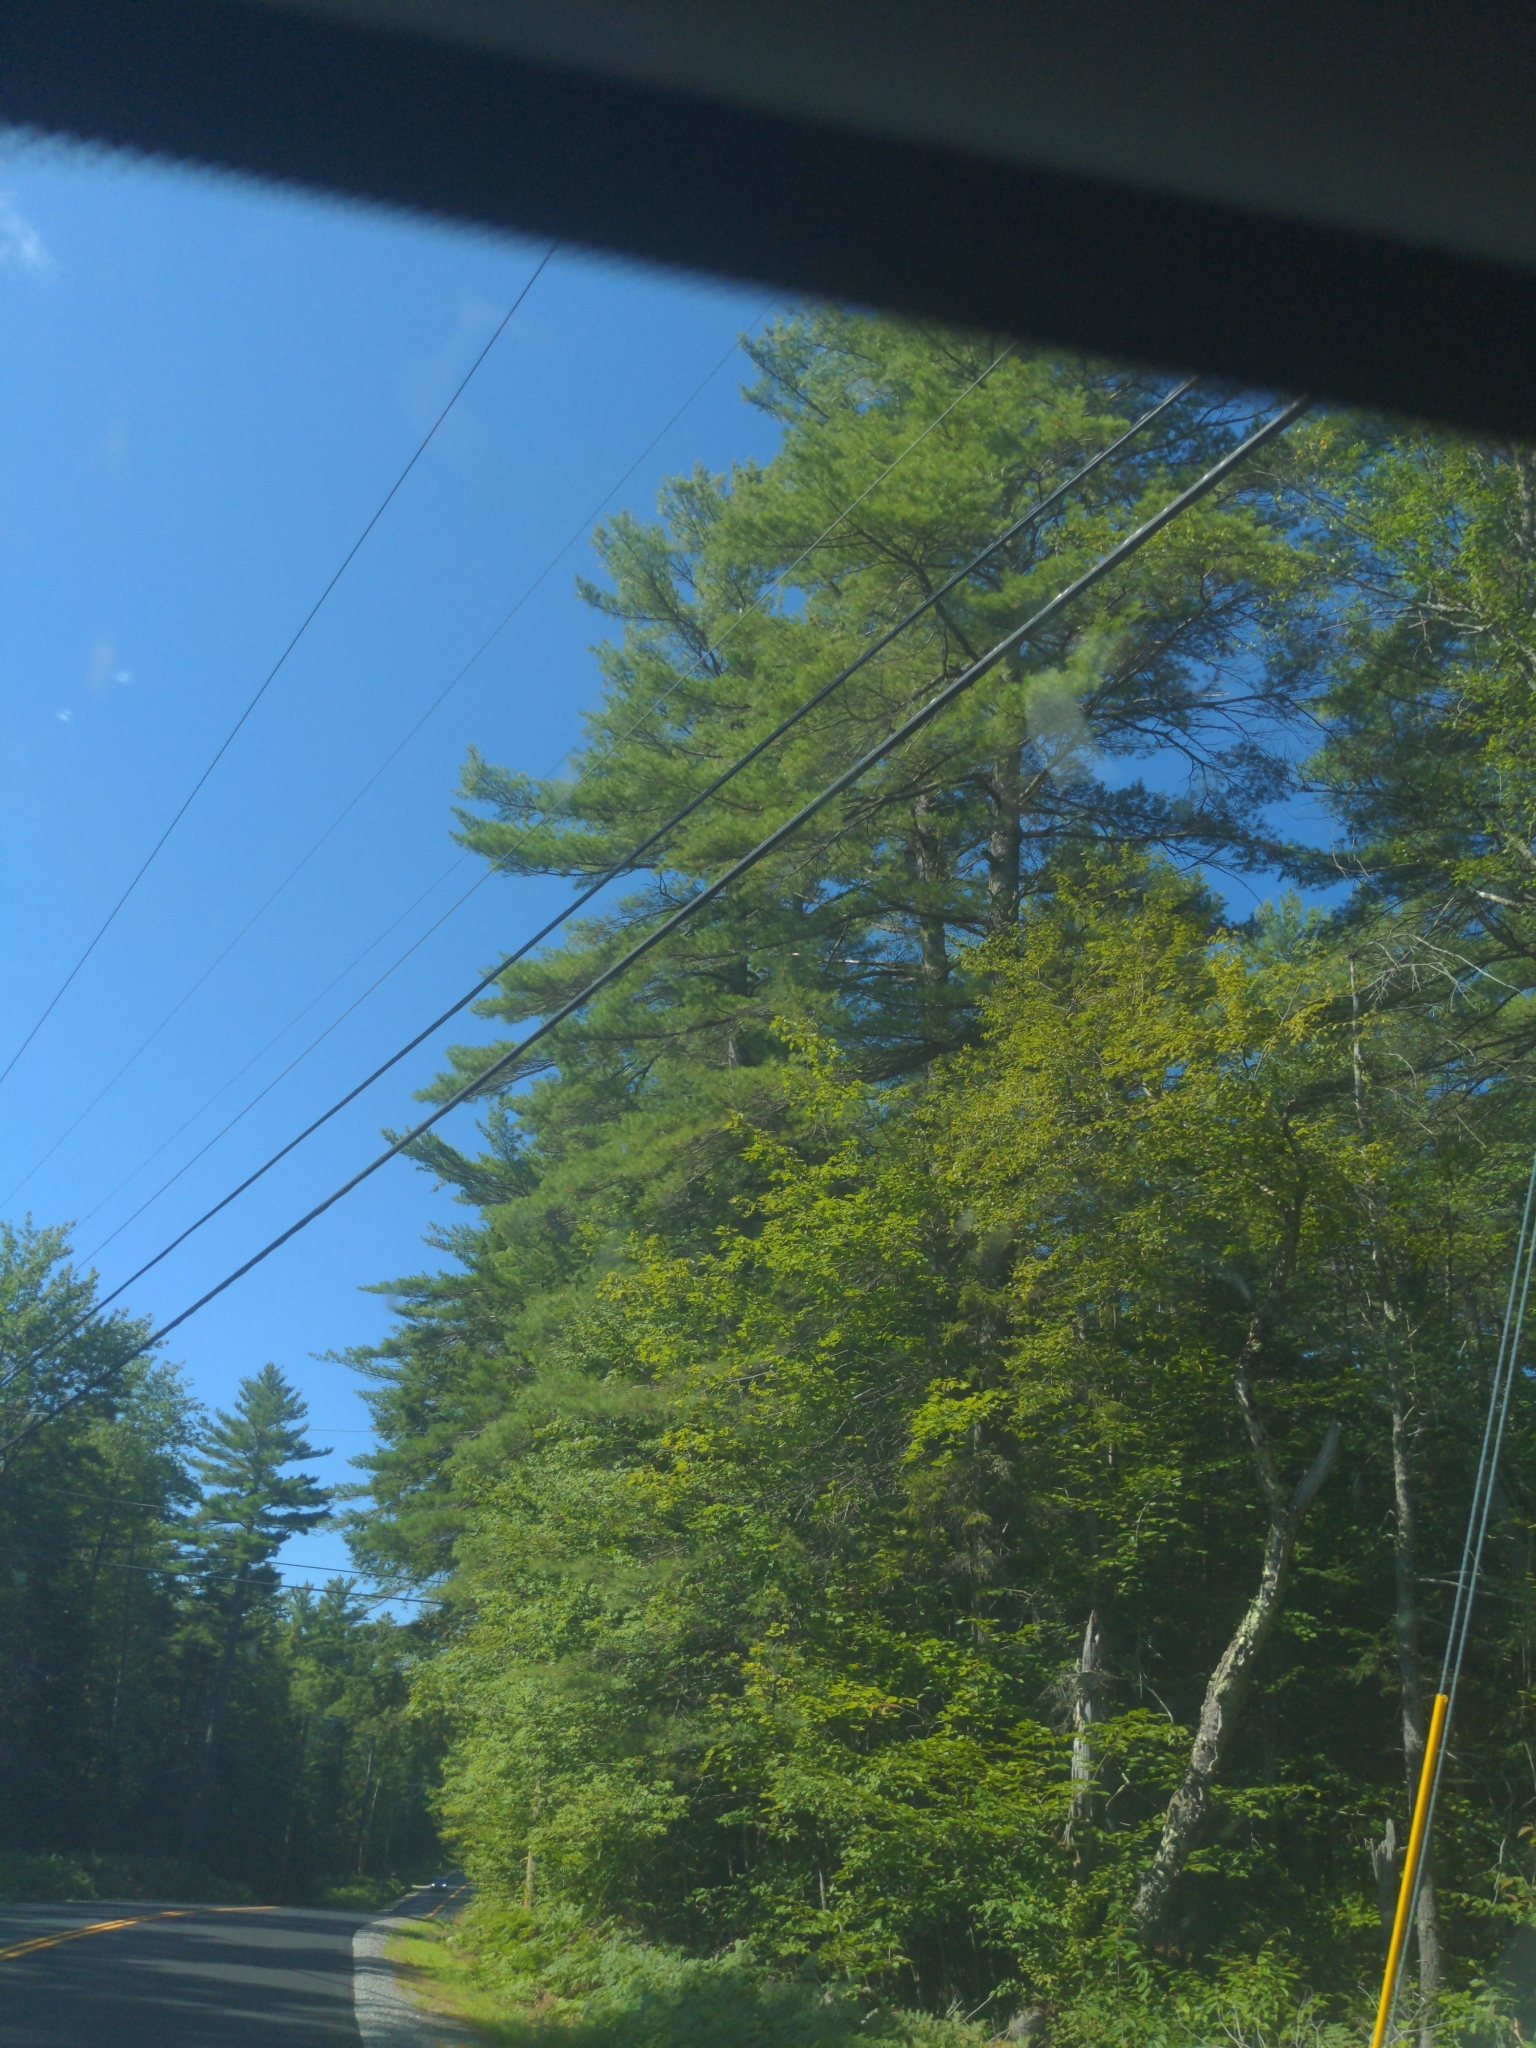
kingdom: Plantae
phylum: Tracheophyta
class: Pinopsida
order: Pinales
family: Pinaceae
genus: Pinus
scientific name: Pinus strobus
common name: Weymouth pine
